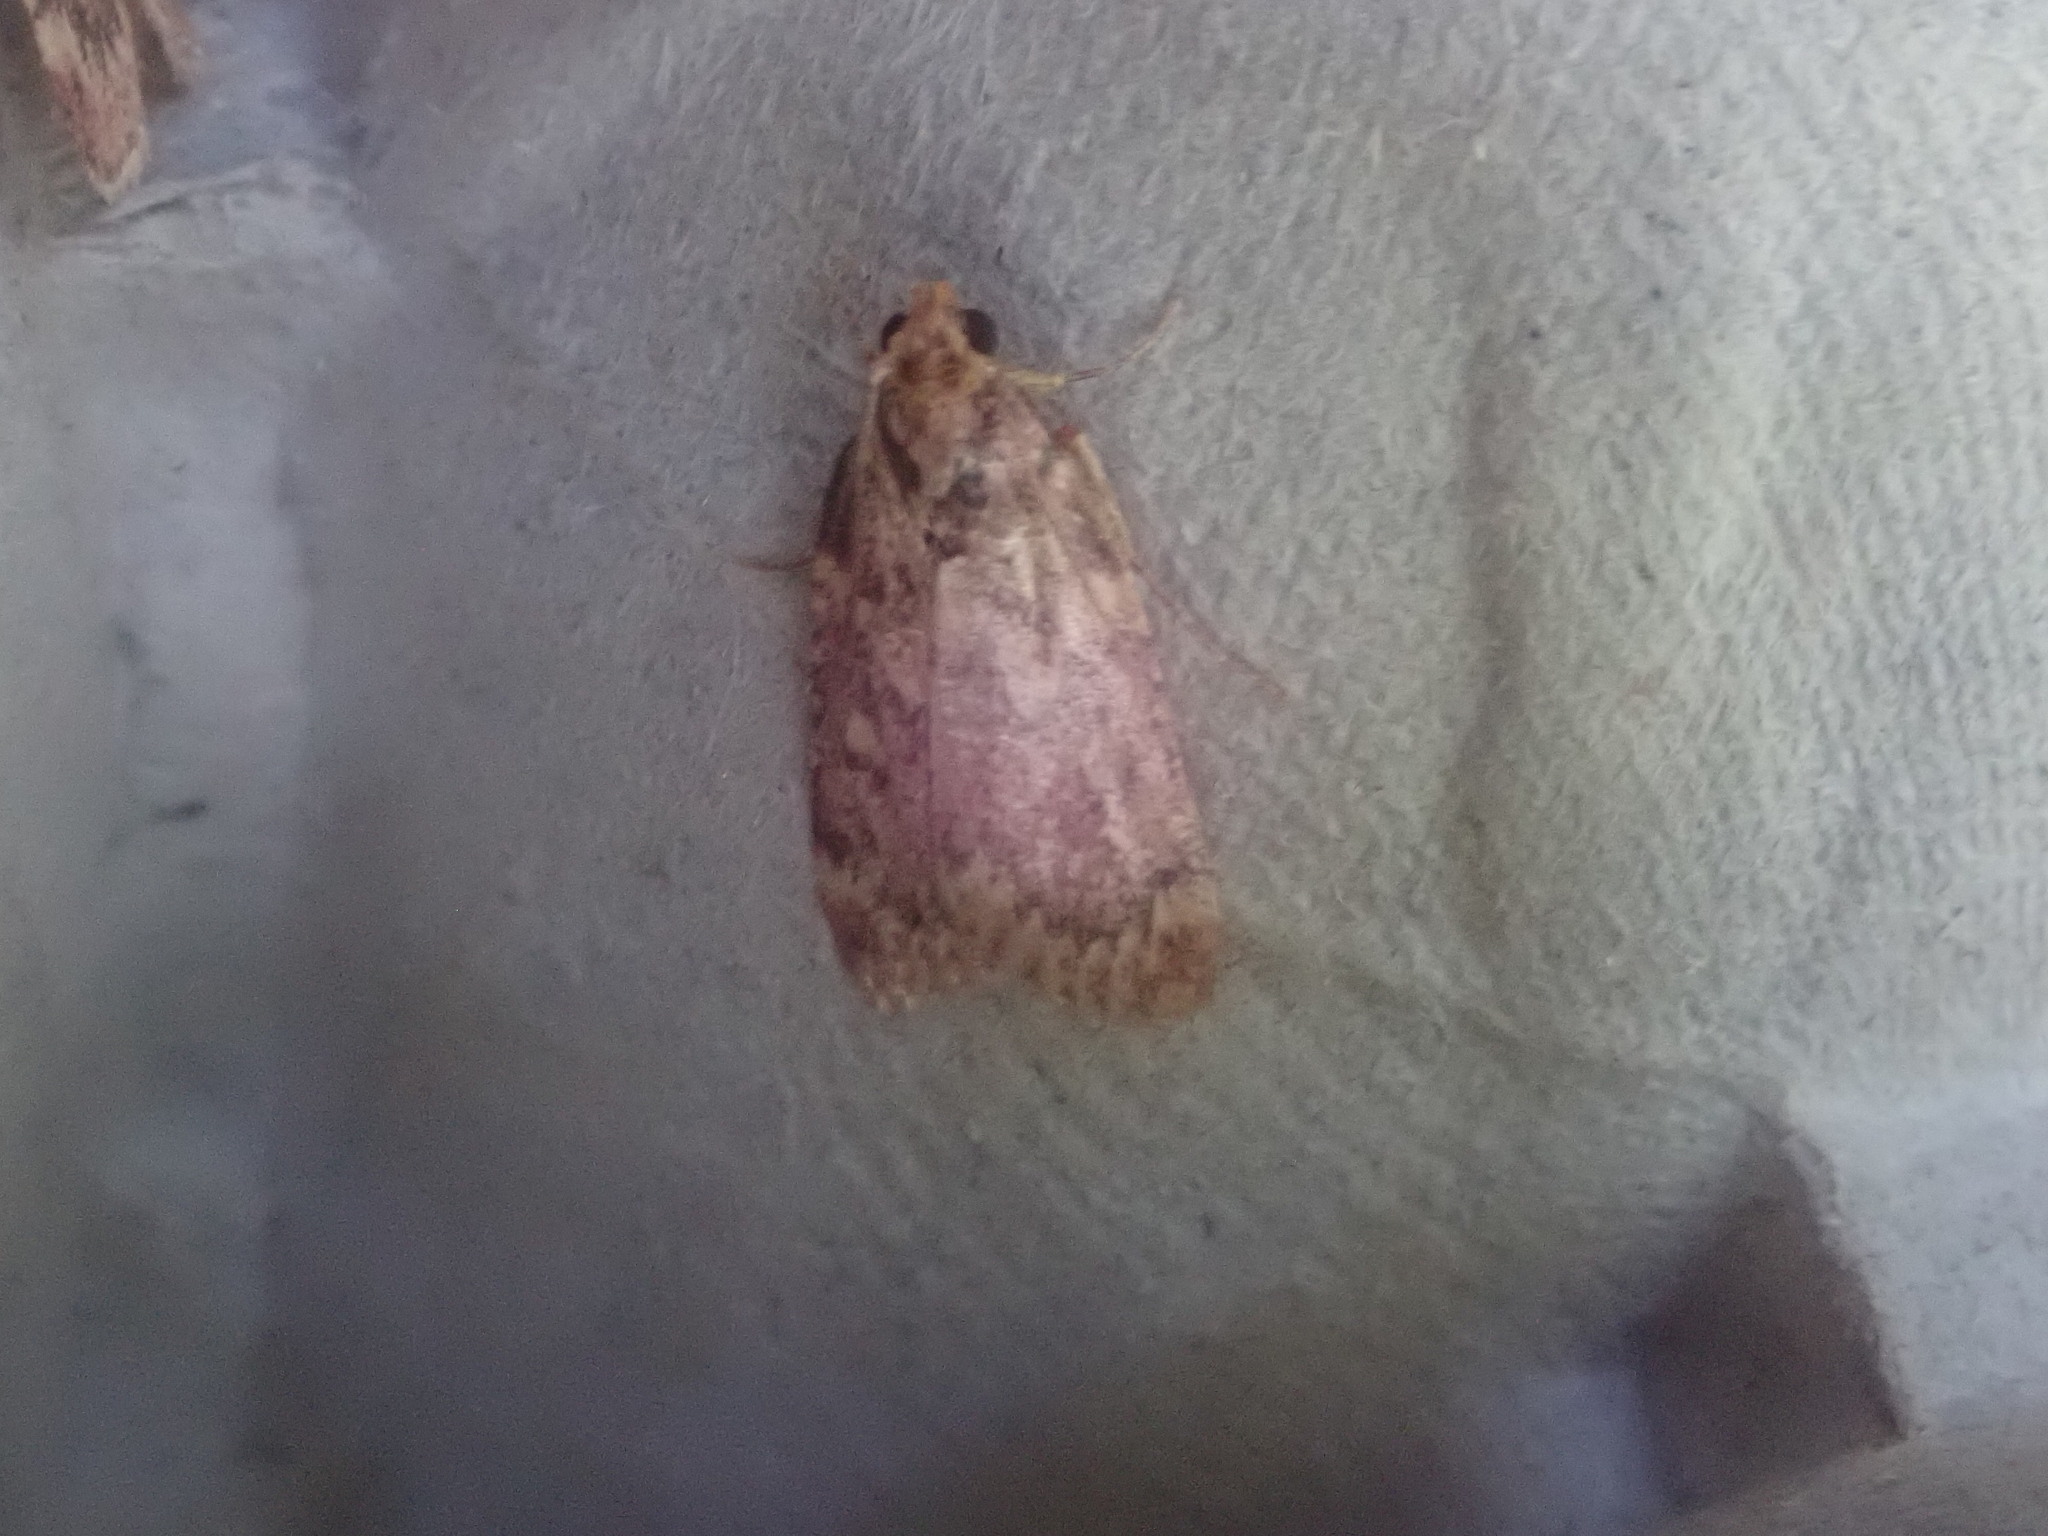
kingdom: Animalia
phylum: Arthropoda
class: Insecta
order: Lepidoptera
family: Pyralidae
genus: Aglossa
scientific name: Aglossa cuprina
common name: Grease moth
